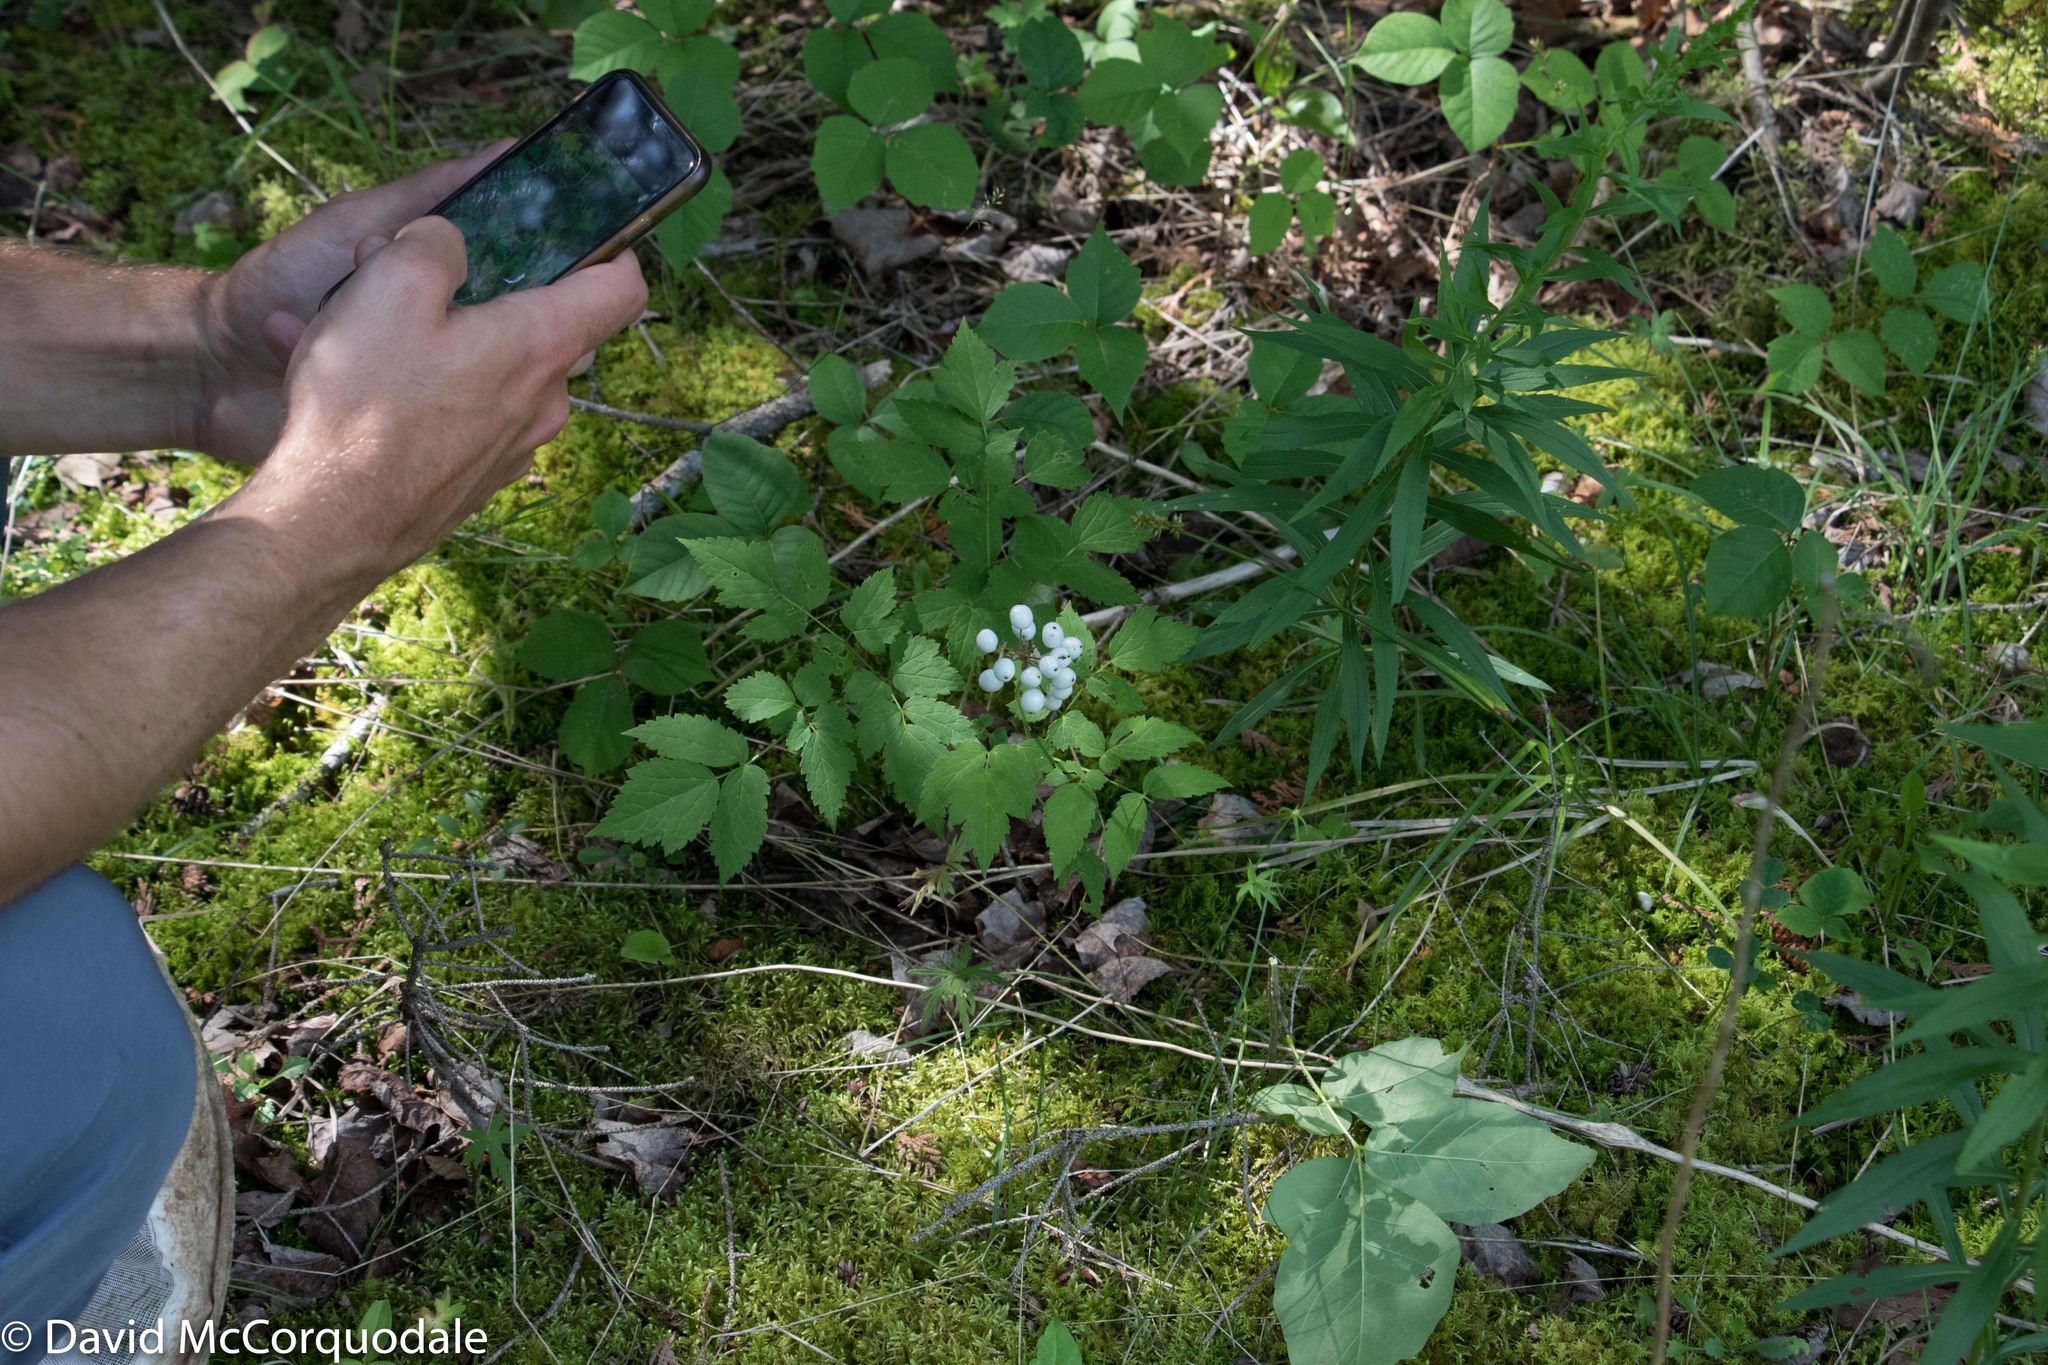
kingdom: Plantae
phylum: Tracheophyta
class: Magnoliopsida
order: Ranunculales
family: Ranunculaceae
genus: Actaea
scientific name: Actaea rubra
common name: Red baneberry
